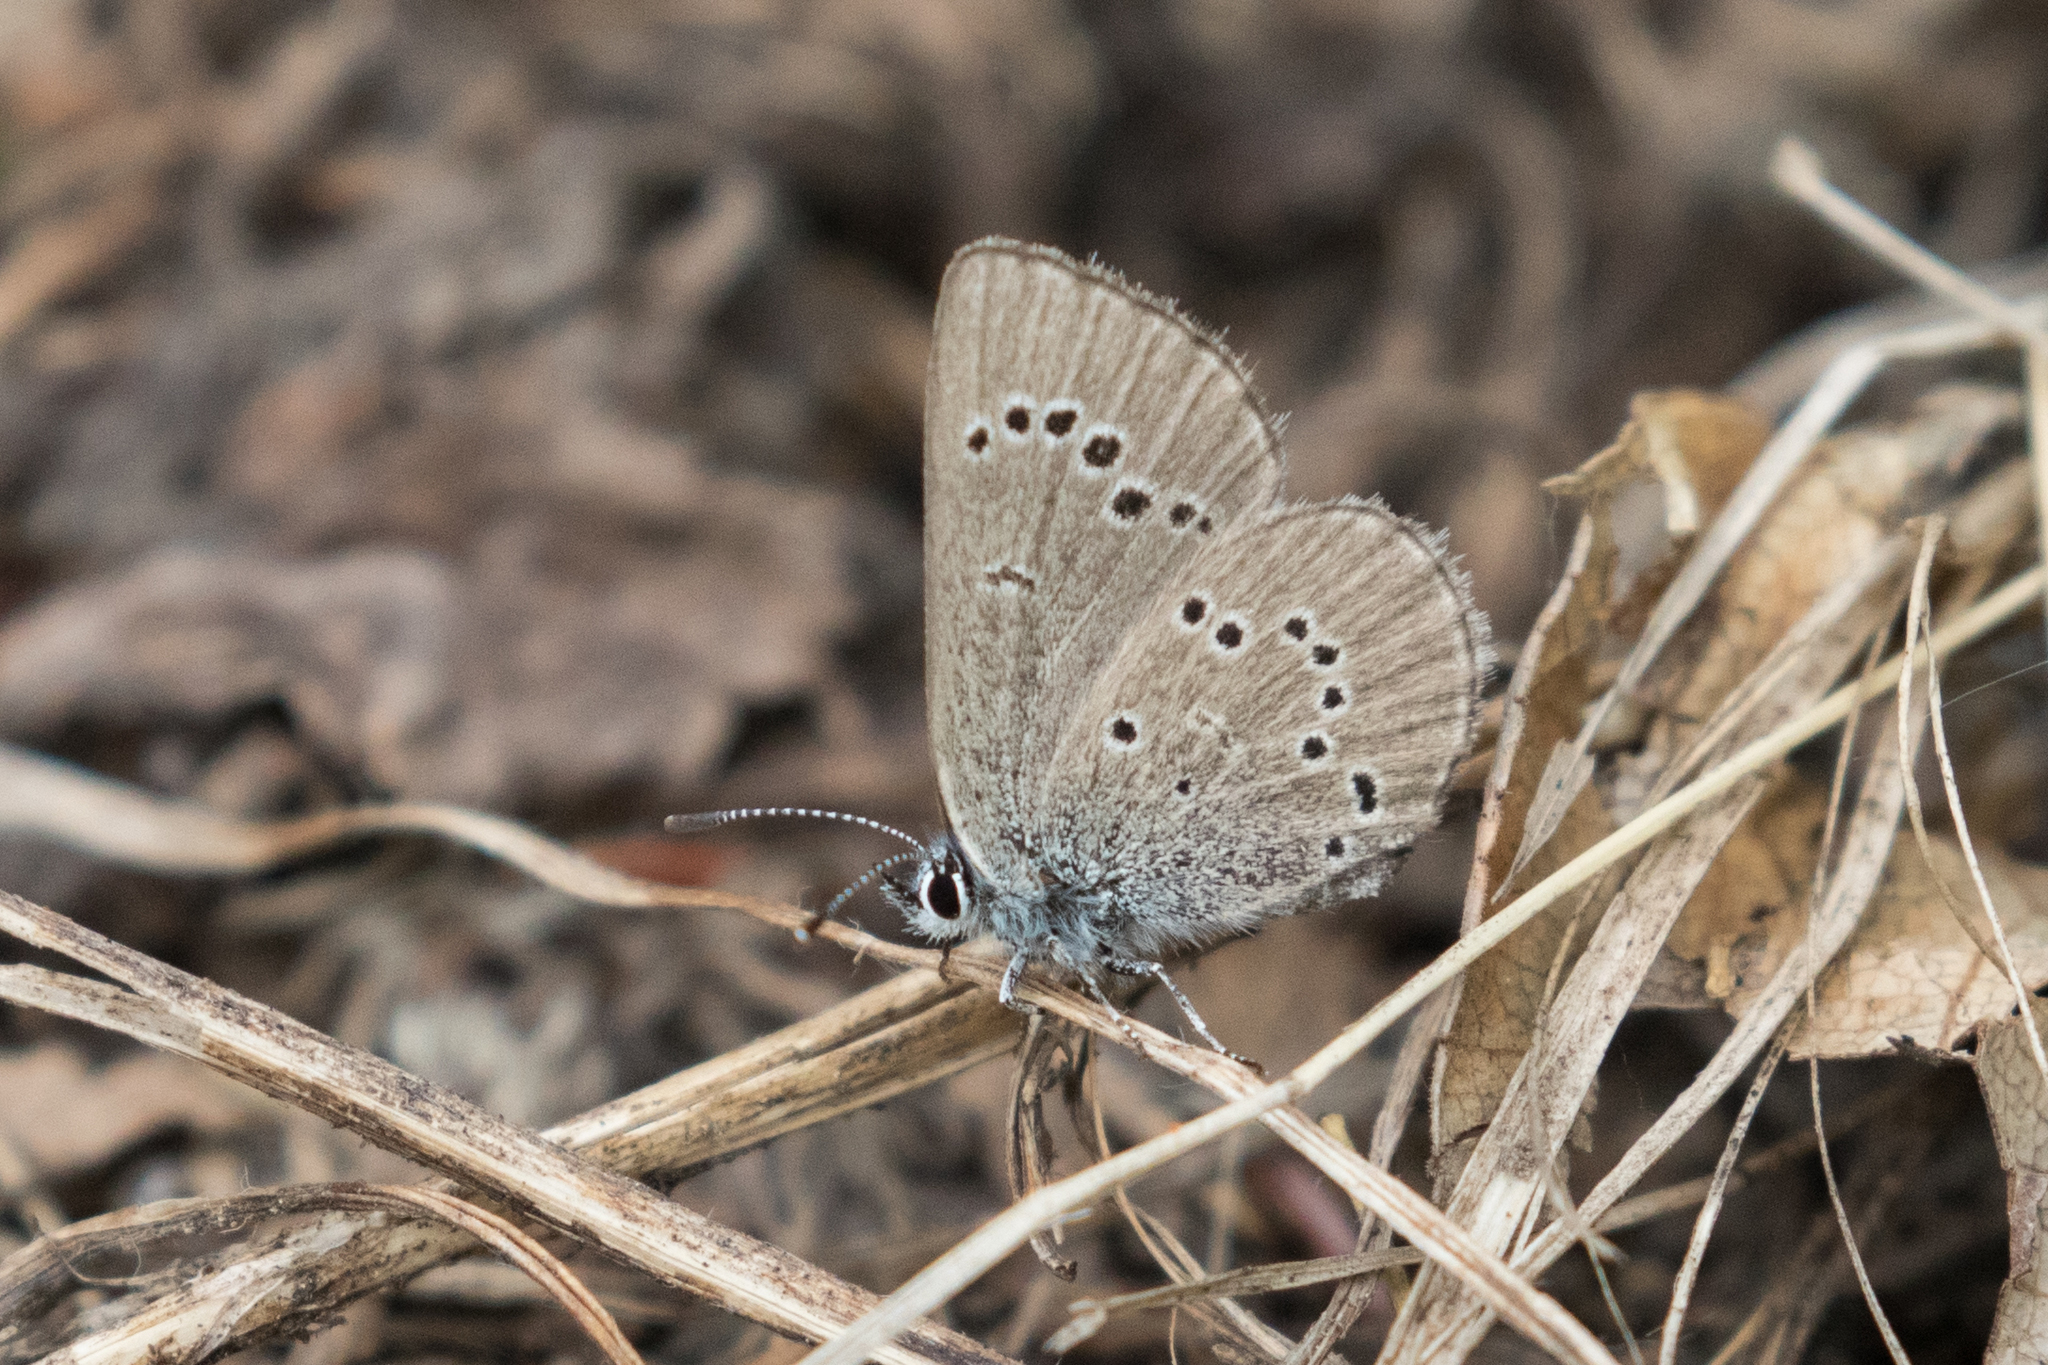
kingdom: Animalia
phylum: Arthropoda
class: Insecta
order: Lepidoptera
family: Lycaenidae
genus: Glaucopsyche
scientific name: Glaucopsyche lygdamus
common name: Silvery blue
